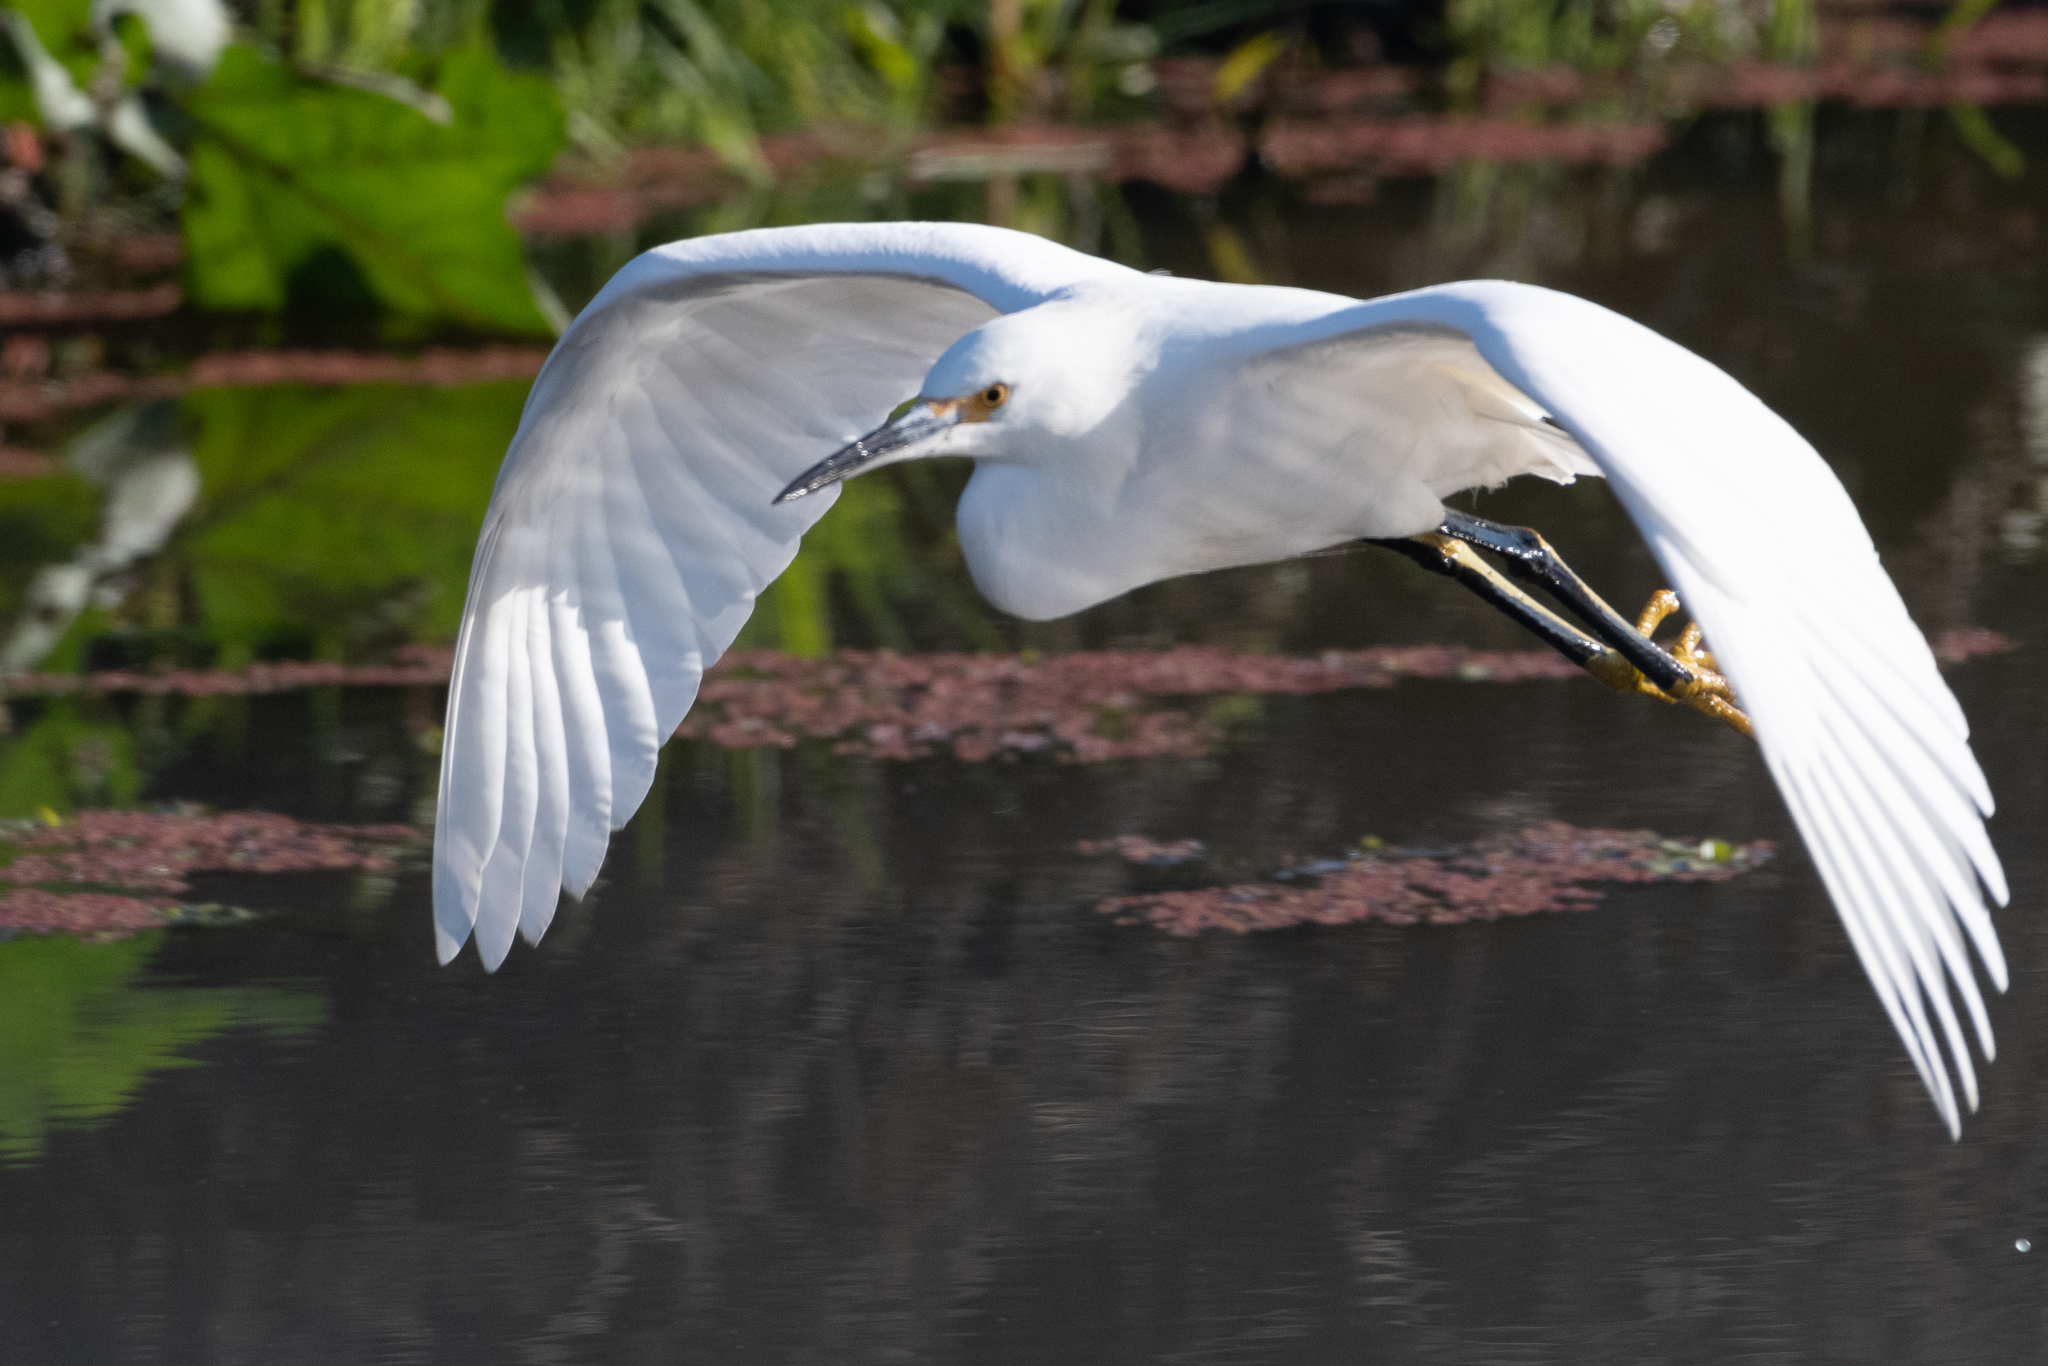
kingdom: Animalia
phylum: Chordata
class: Aves
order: Pelecaniformes
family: Ardeidae
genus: Egretta
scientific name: Egretta thula
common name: Snowy egret
